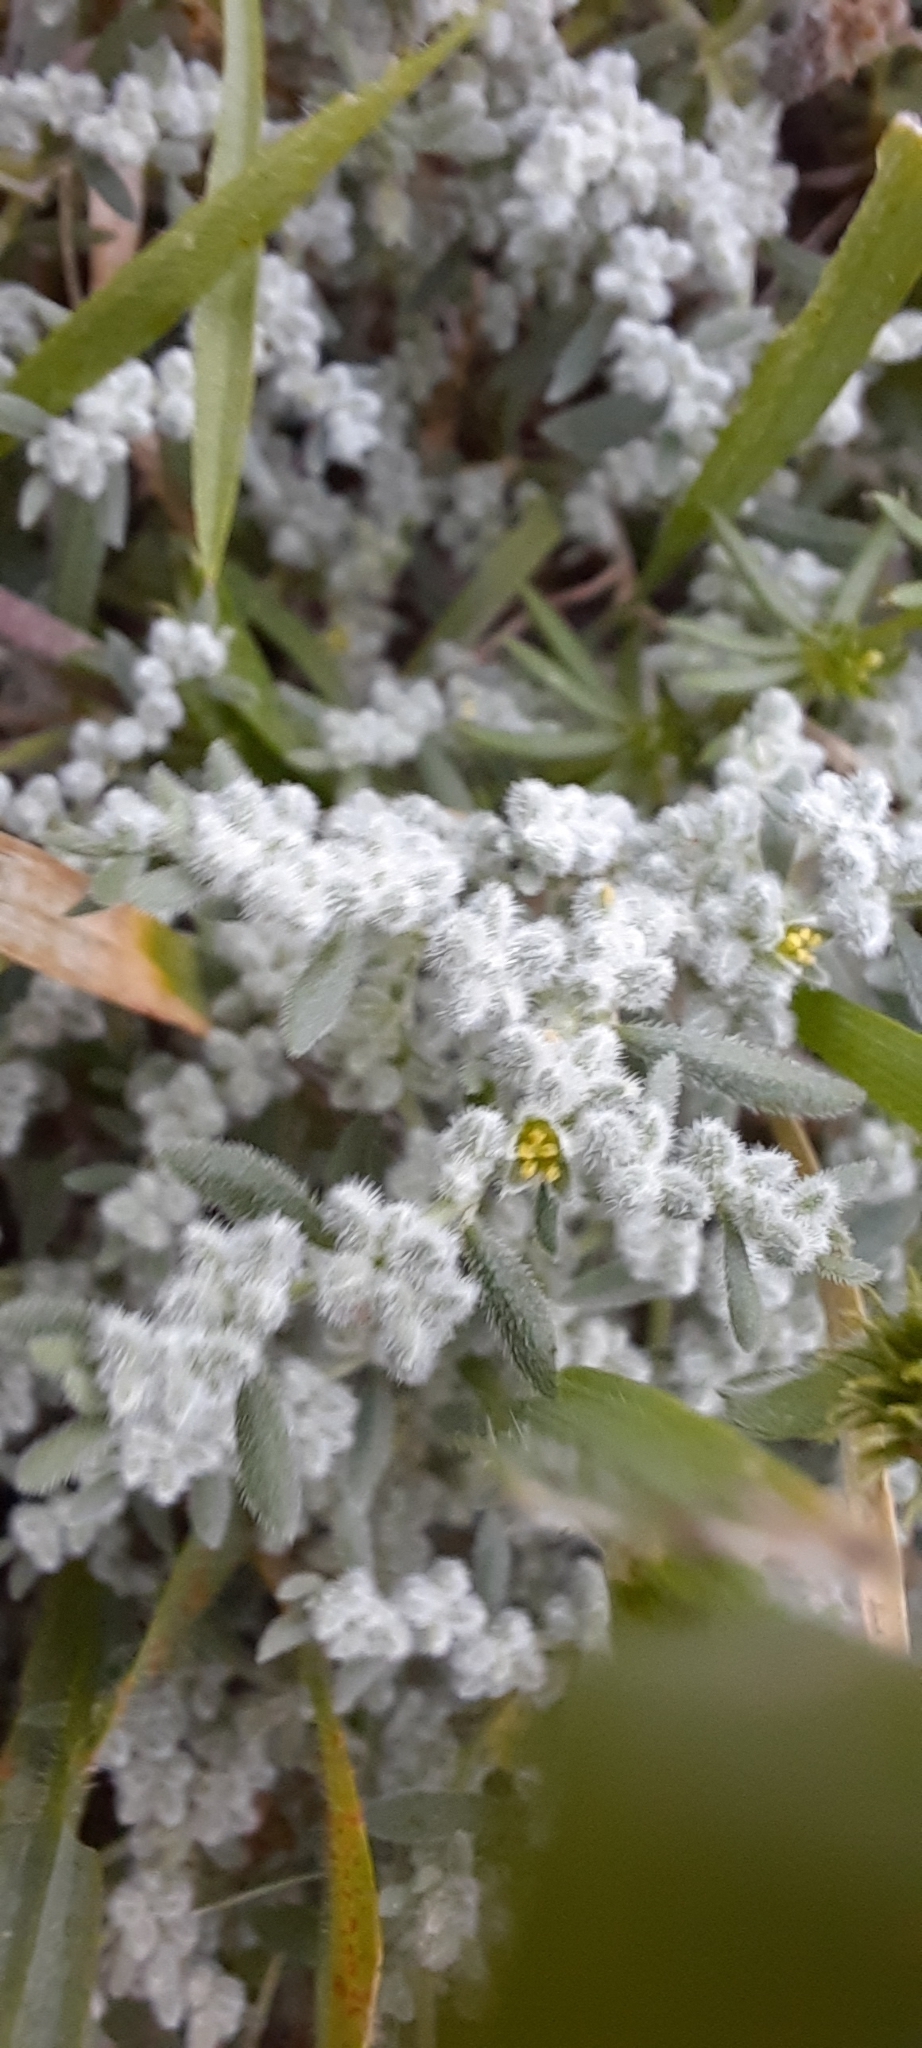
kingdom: Plantae
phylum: Tracheophyta
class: Magnoliopsida
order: Caryophyllales
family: Caryophyllaceae
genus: Herniaria
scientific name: Herniaria incana
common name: Gray rupturewort
